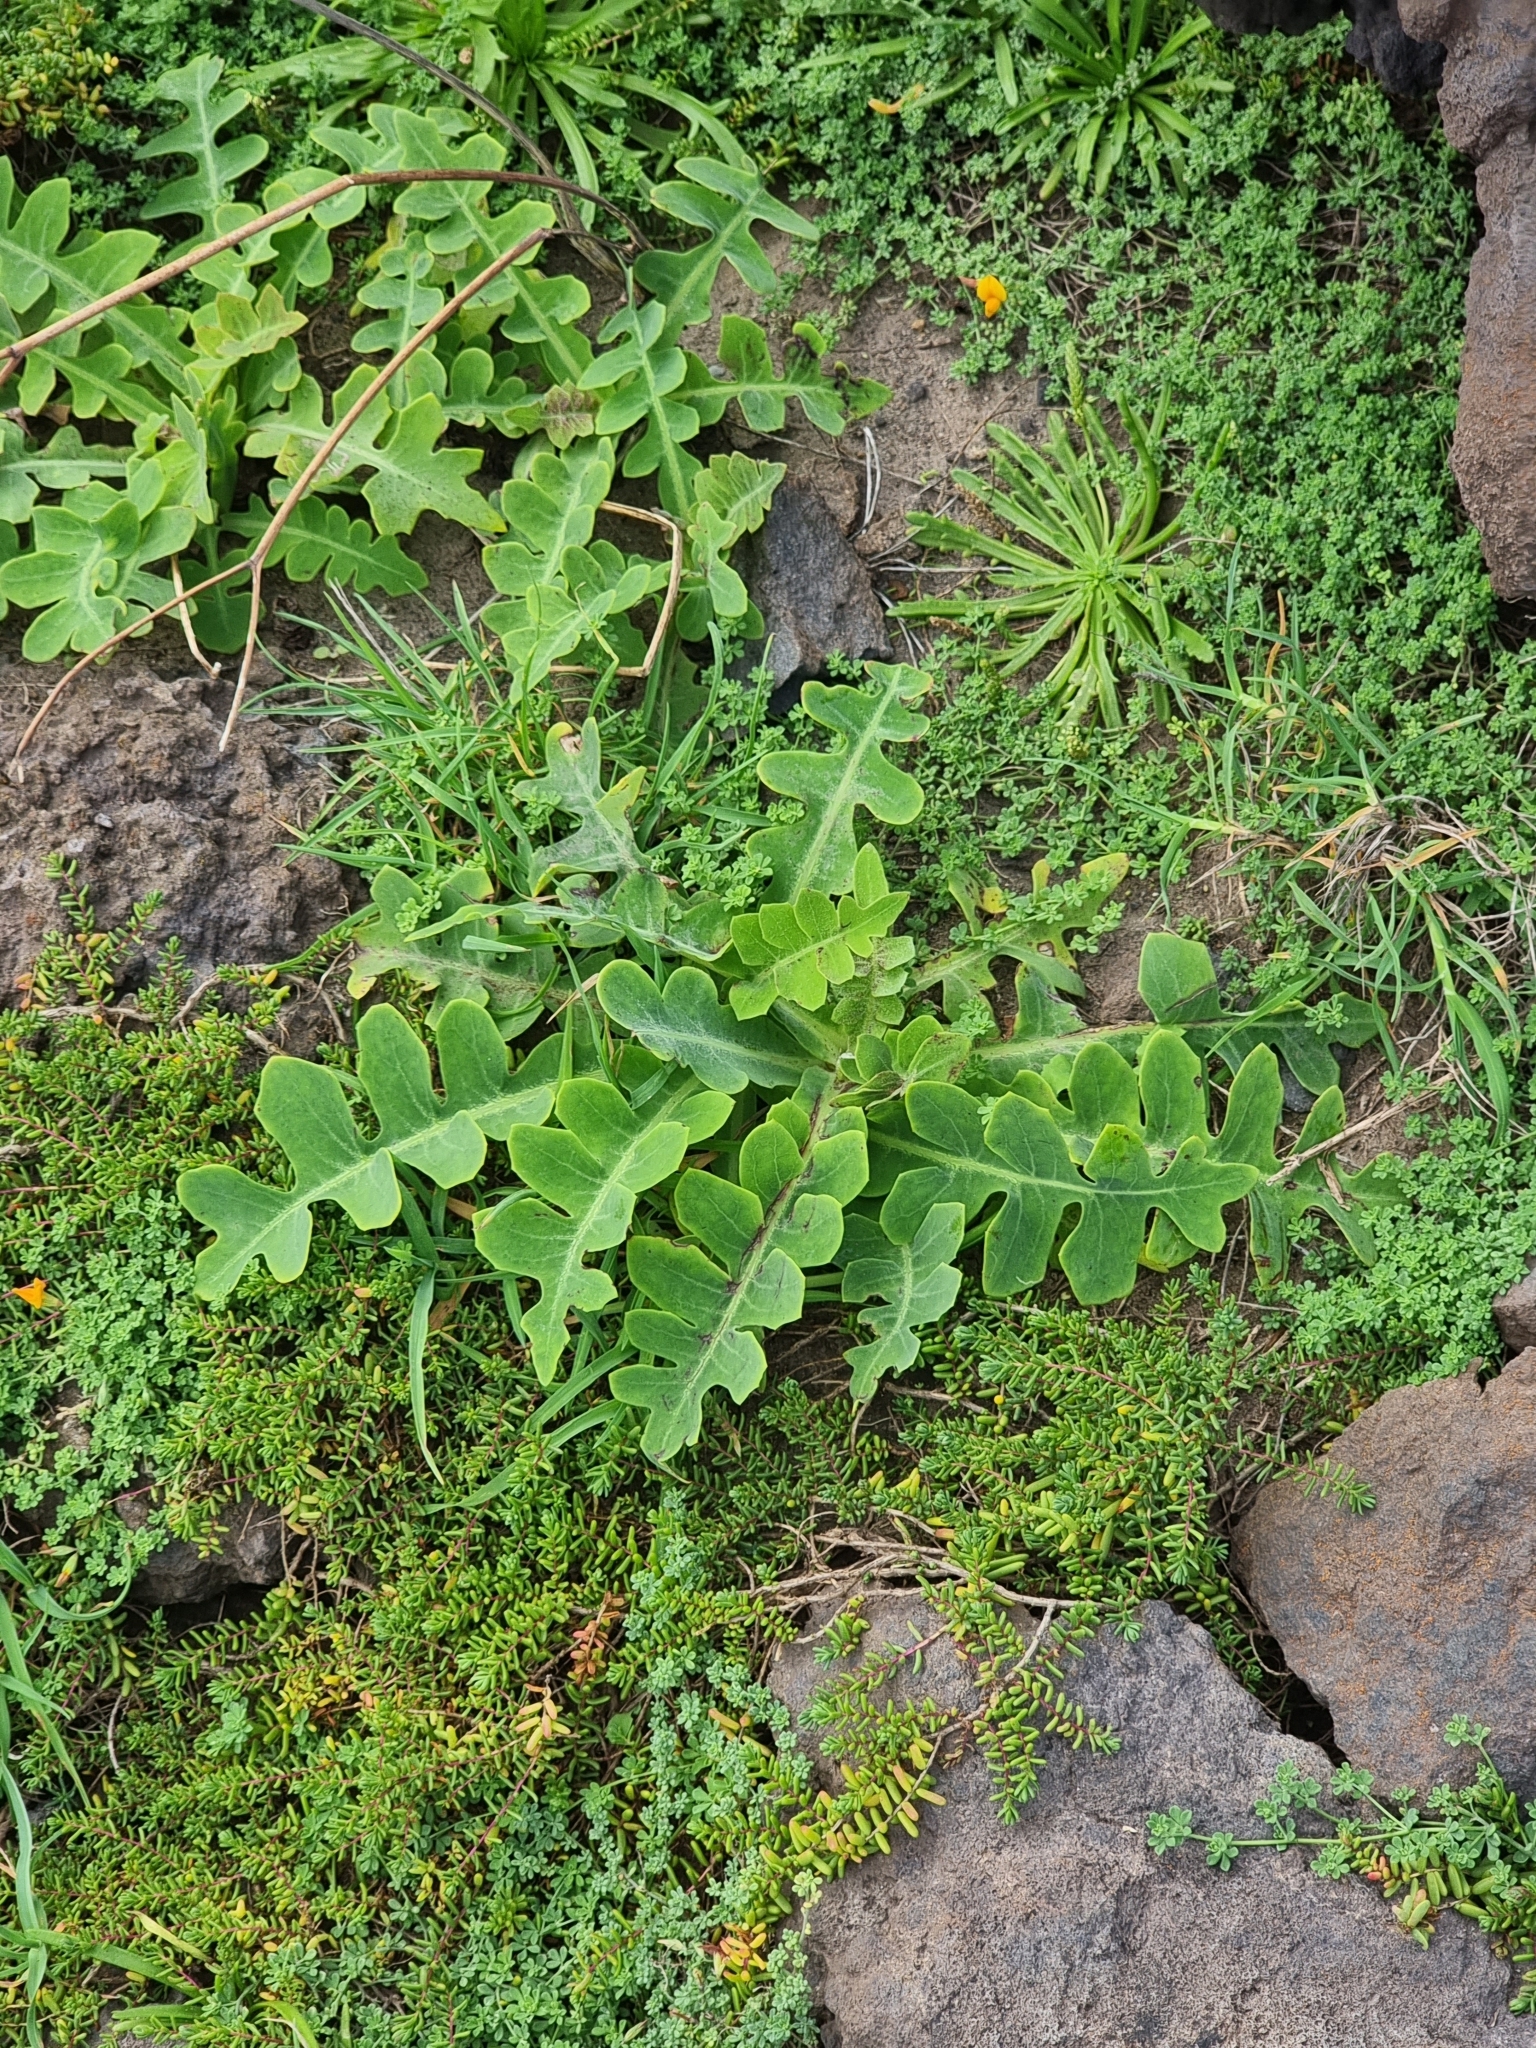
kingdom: Plantae
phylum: Tracheophyta
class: Magnoliopsida
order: Asterales
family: Asteraceae
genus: Sonchus
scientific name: Sonchus latifolius
